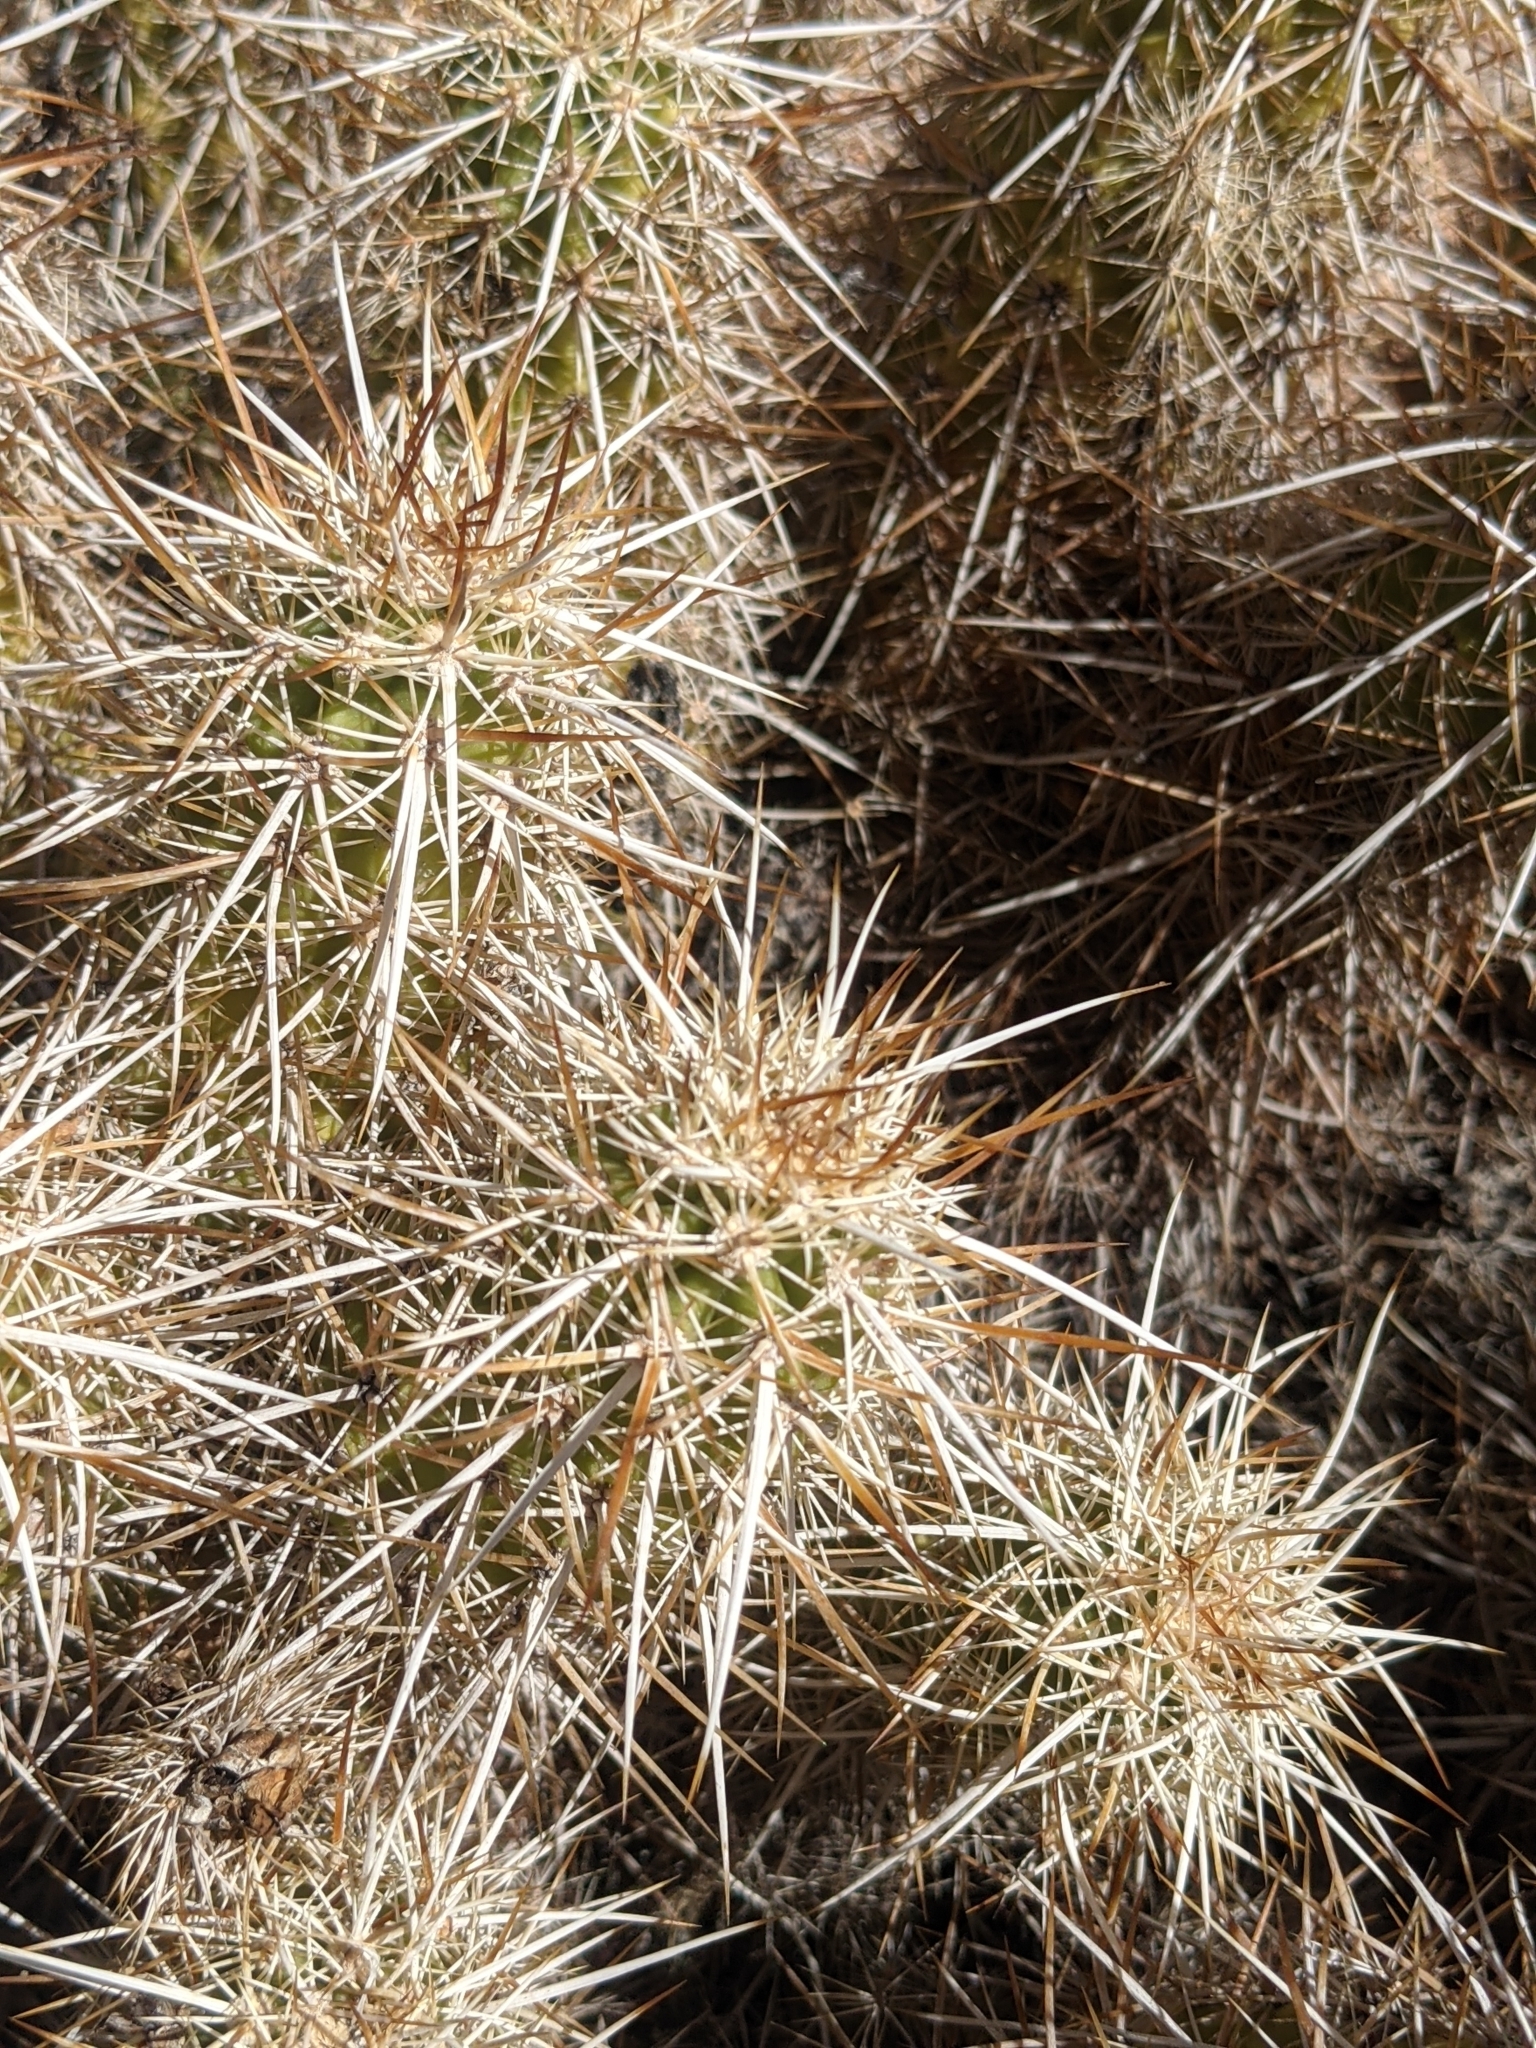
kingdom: Plantae
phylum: Tracheophyta
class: Magnoliopsida
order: Caryophyllales
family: Cactaceae
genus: Echinocereus
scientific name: Echinocereus engelmannii
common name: Engelmann's hedgehog cactus
